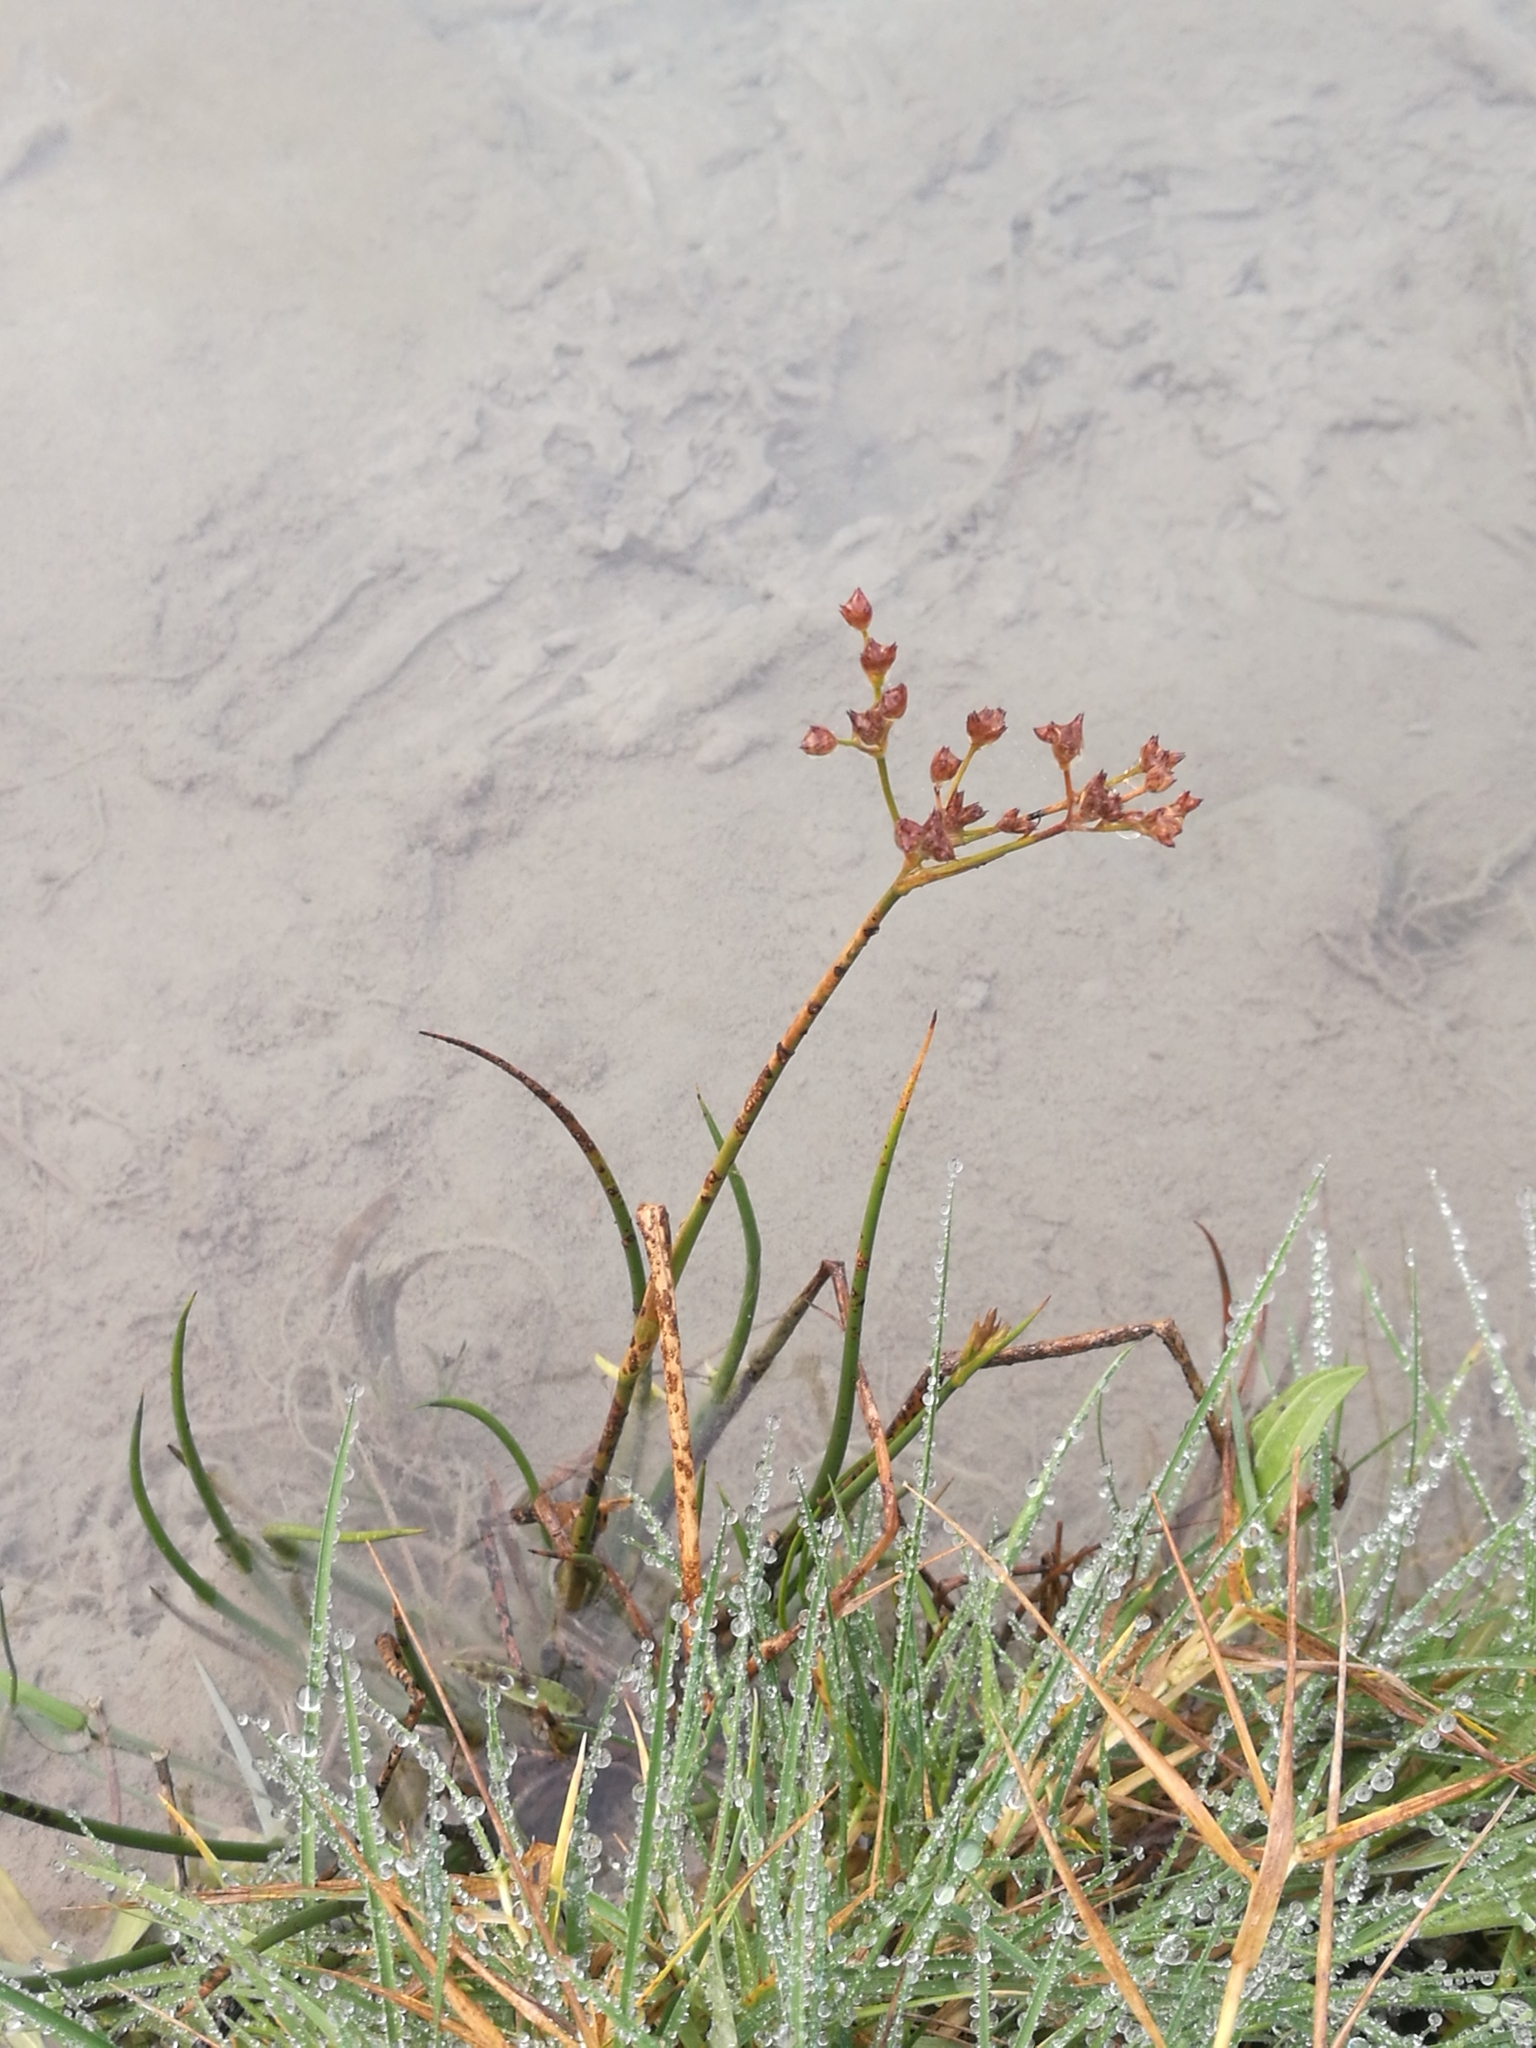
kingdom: Plantae
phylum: Tracheophyta
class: Liliopsida
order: Poales
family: Juncaceae
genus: Juncus
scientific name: Juncus articulatus
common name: Jointed rush
